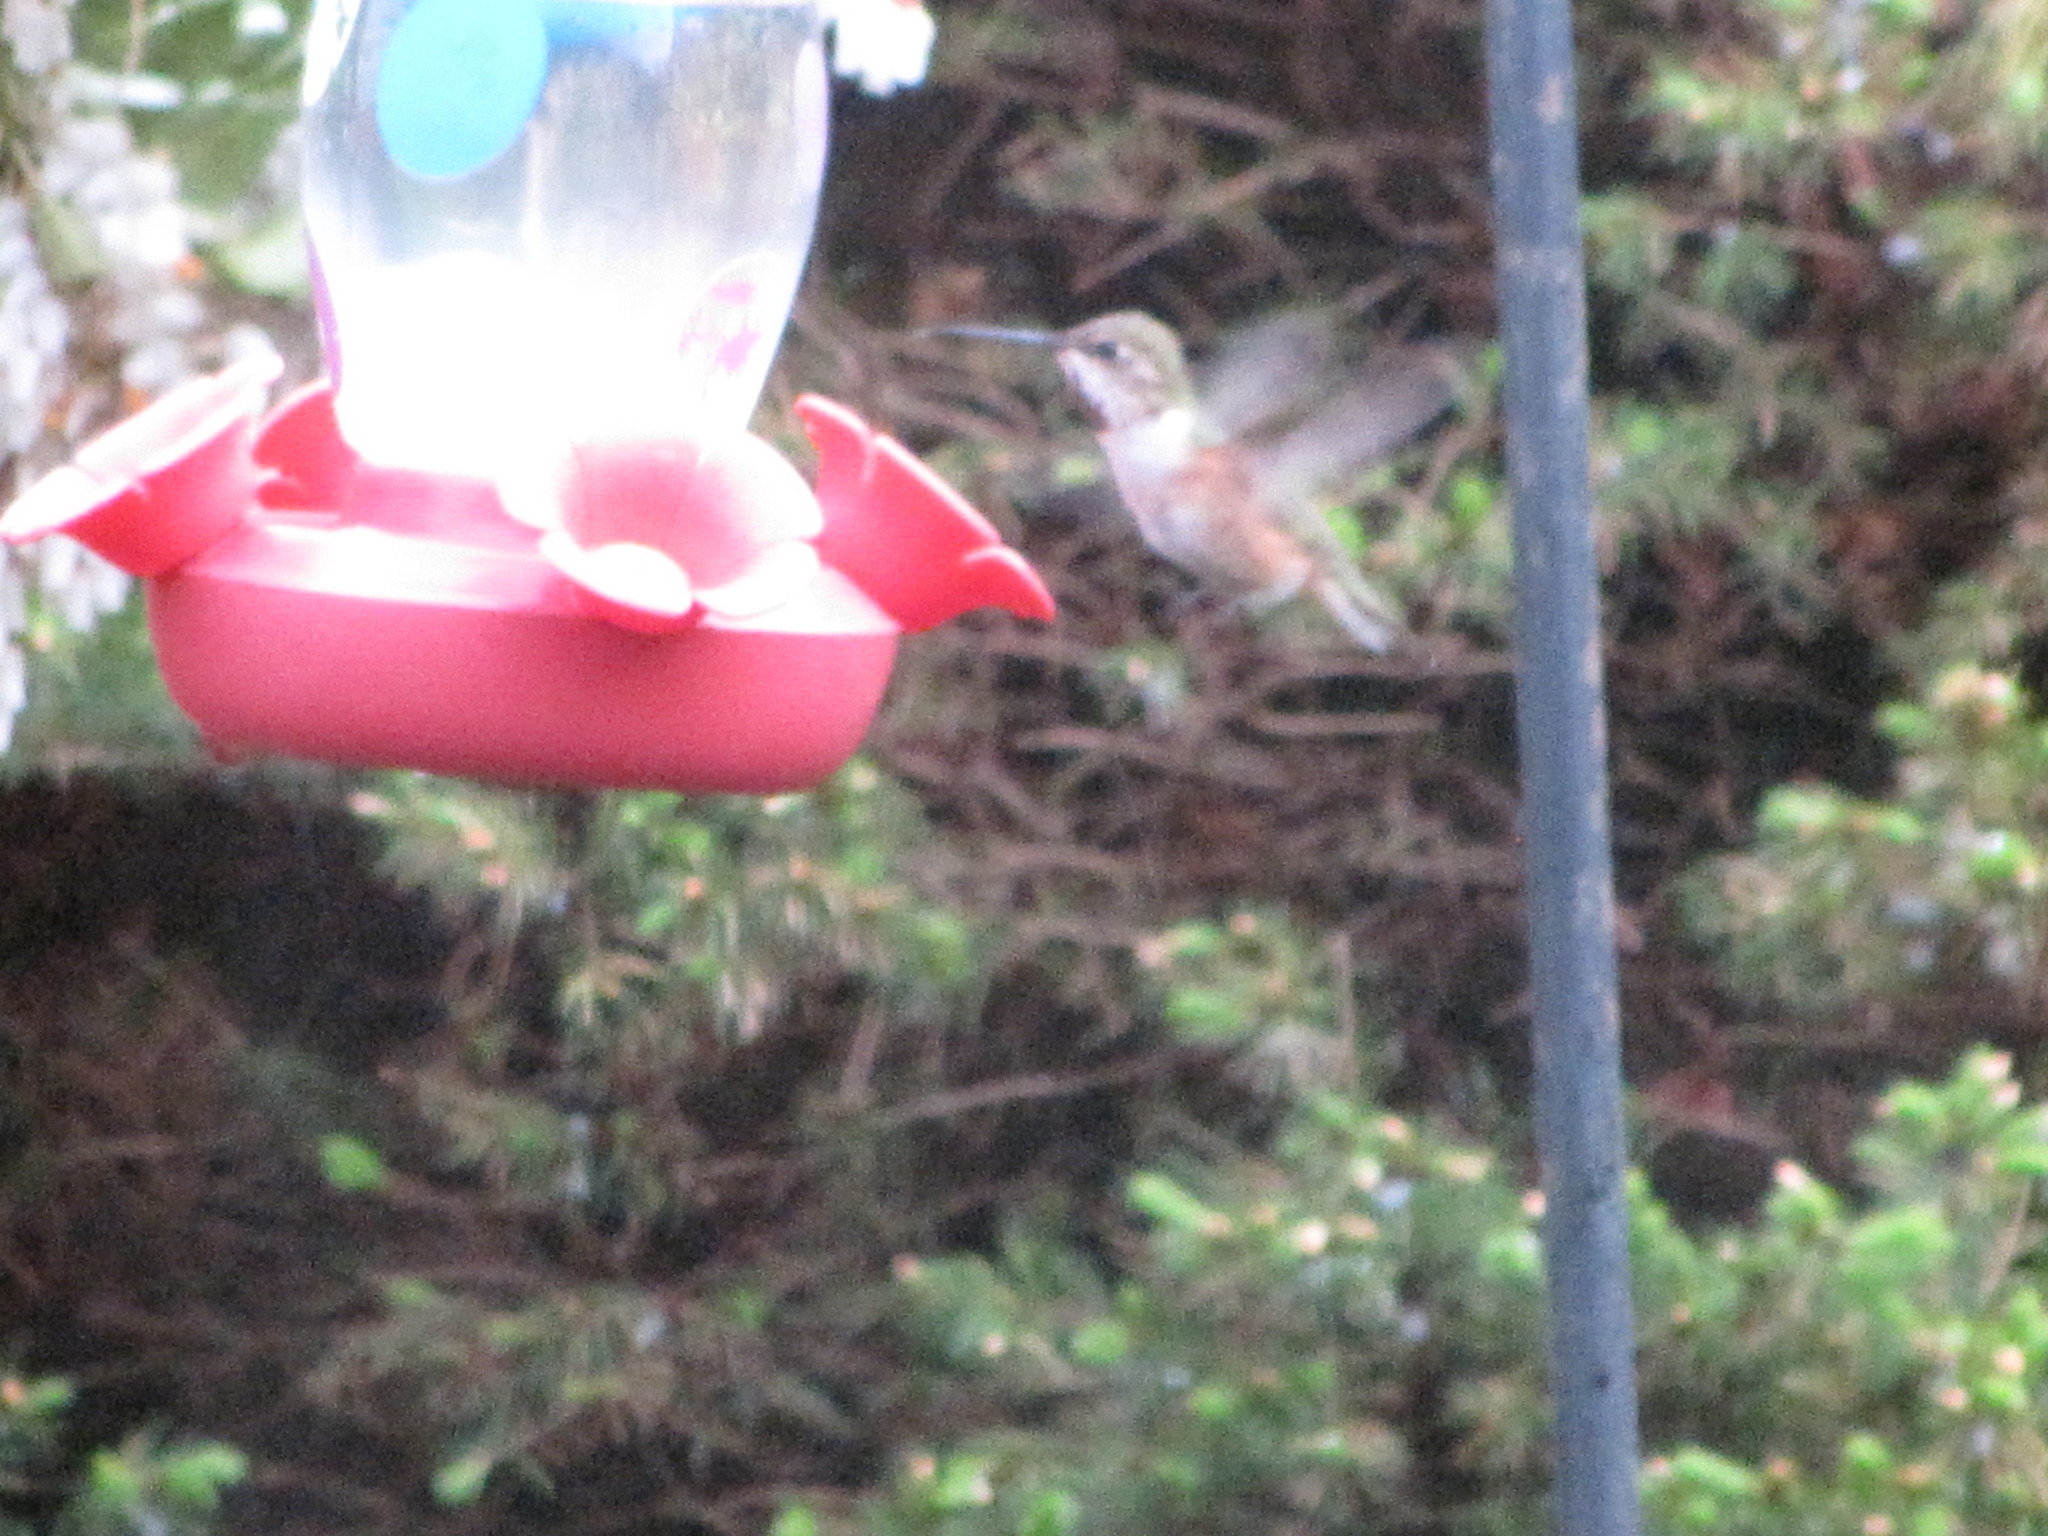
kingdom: Animalia
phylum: Chordata
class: Aves
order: Apodiformes
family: Trochilidae
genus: Selasphorus
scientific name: Selasphorus rufus
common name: Rufous hummingbird
